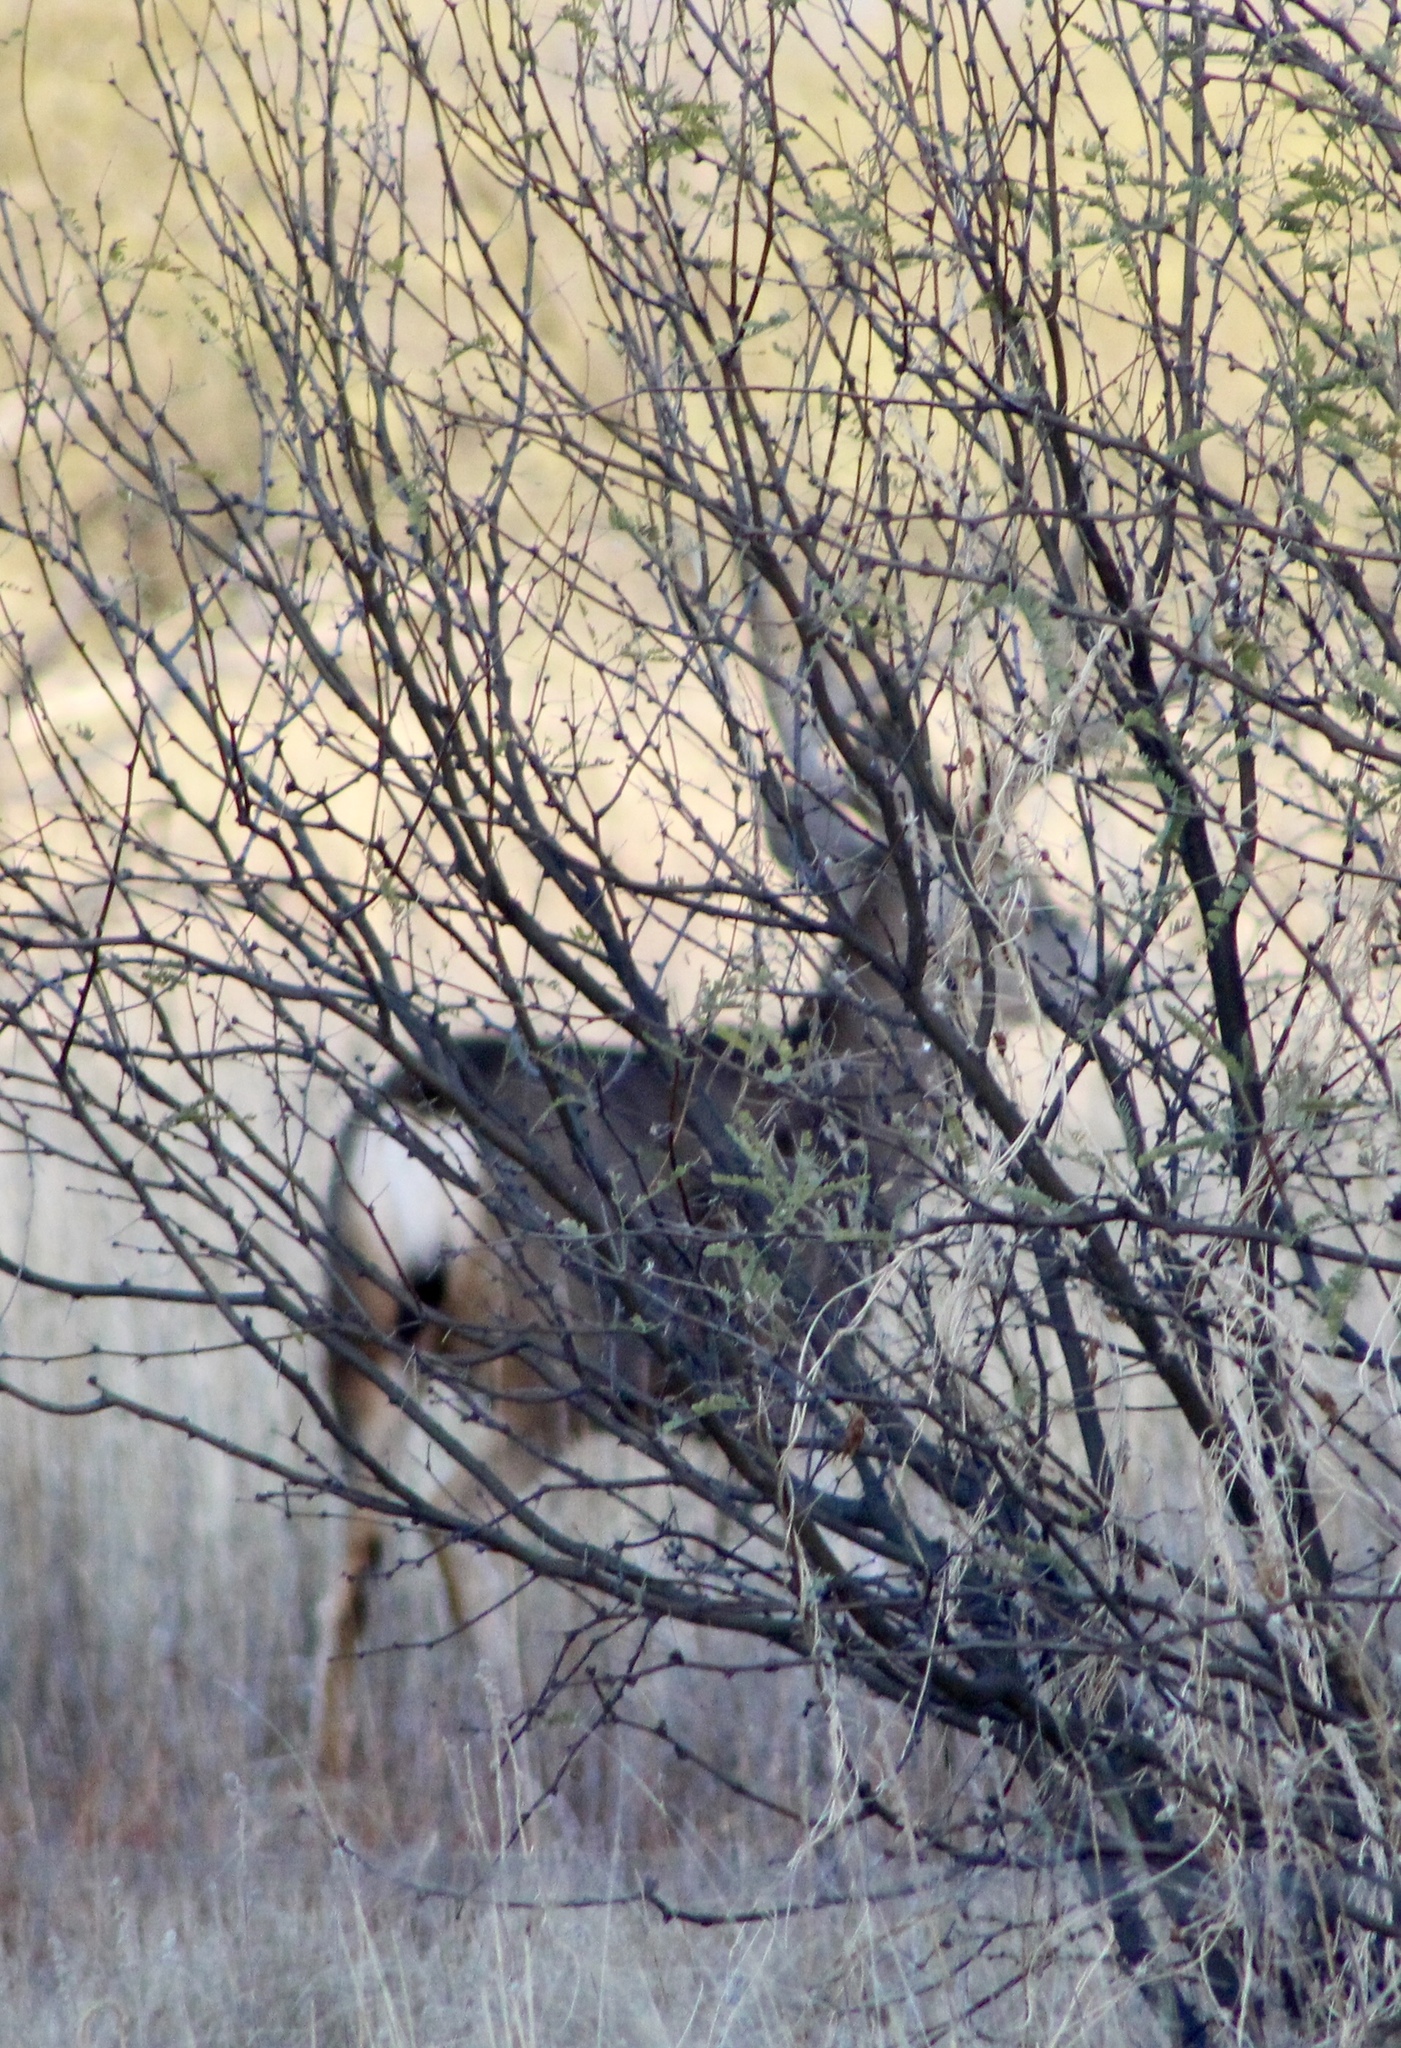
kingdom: Animalia
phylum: Chordata
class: Mammalia
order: Artiodactyla
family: Cervidae
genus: Odocoileus
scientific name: Odocoileus hemionus
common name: Mule deer
